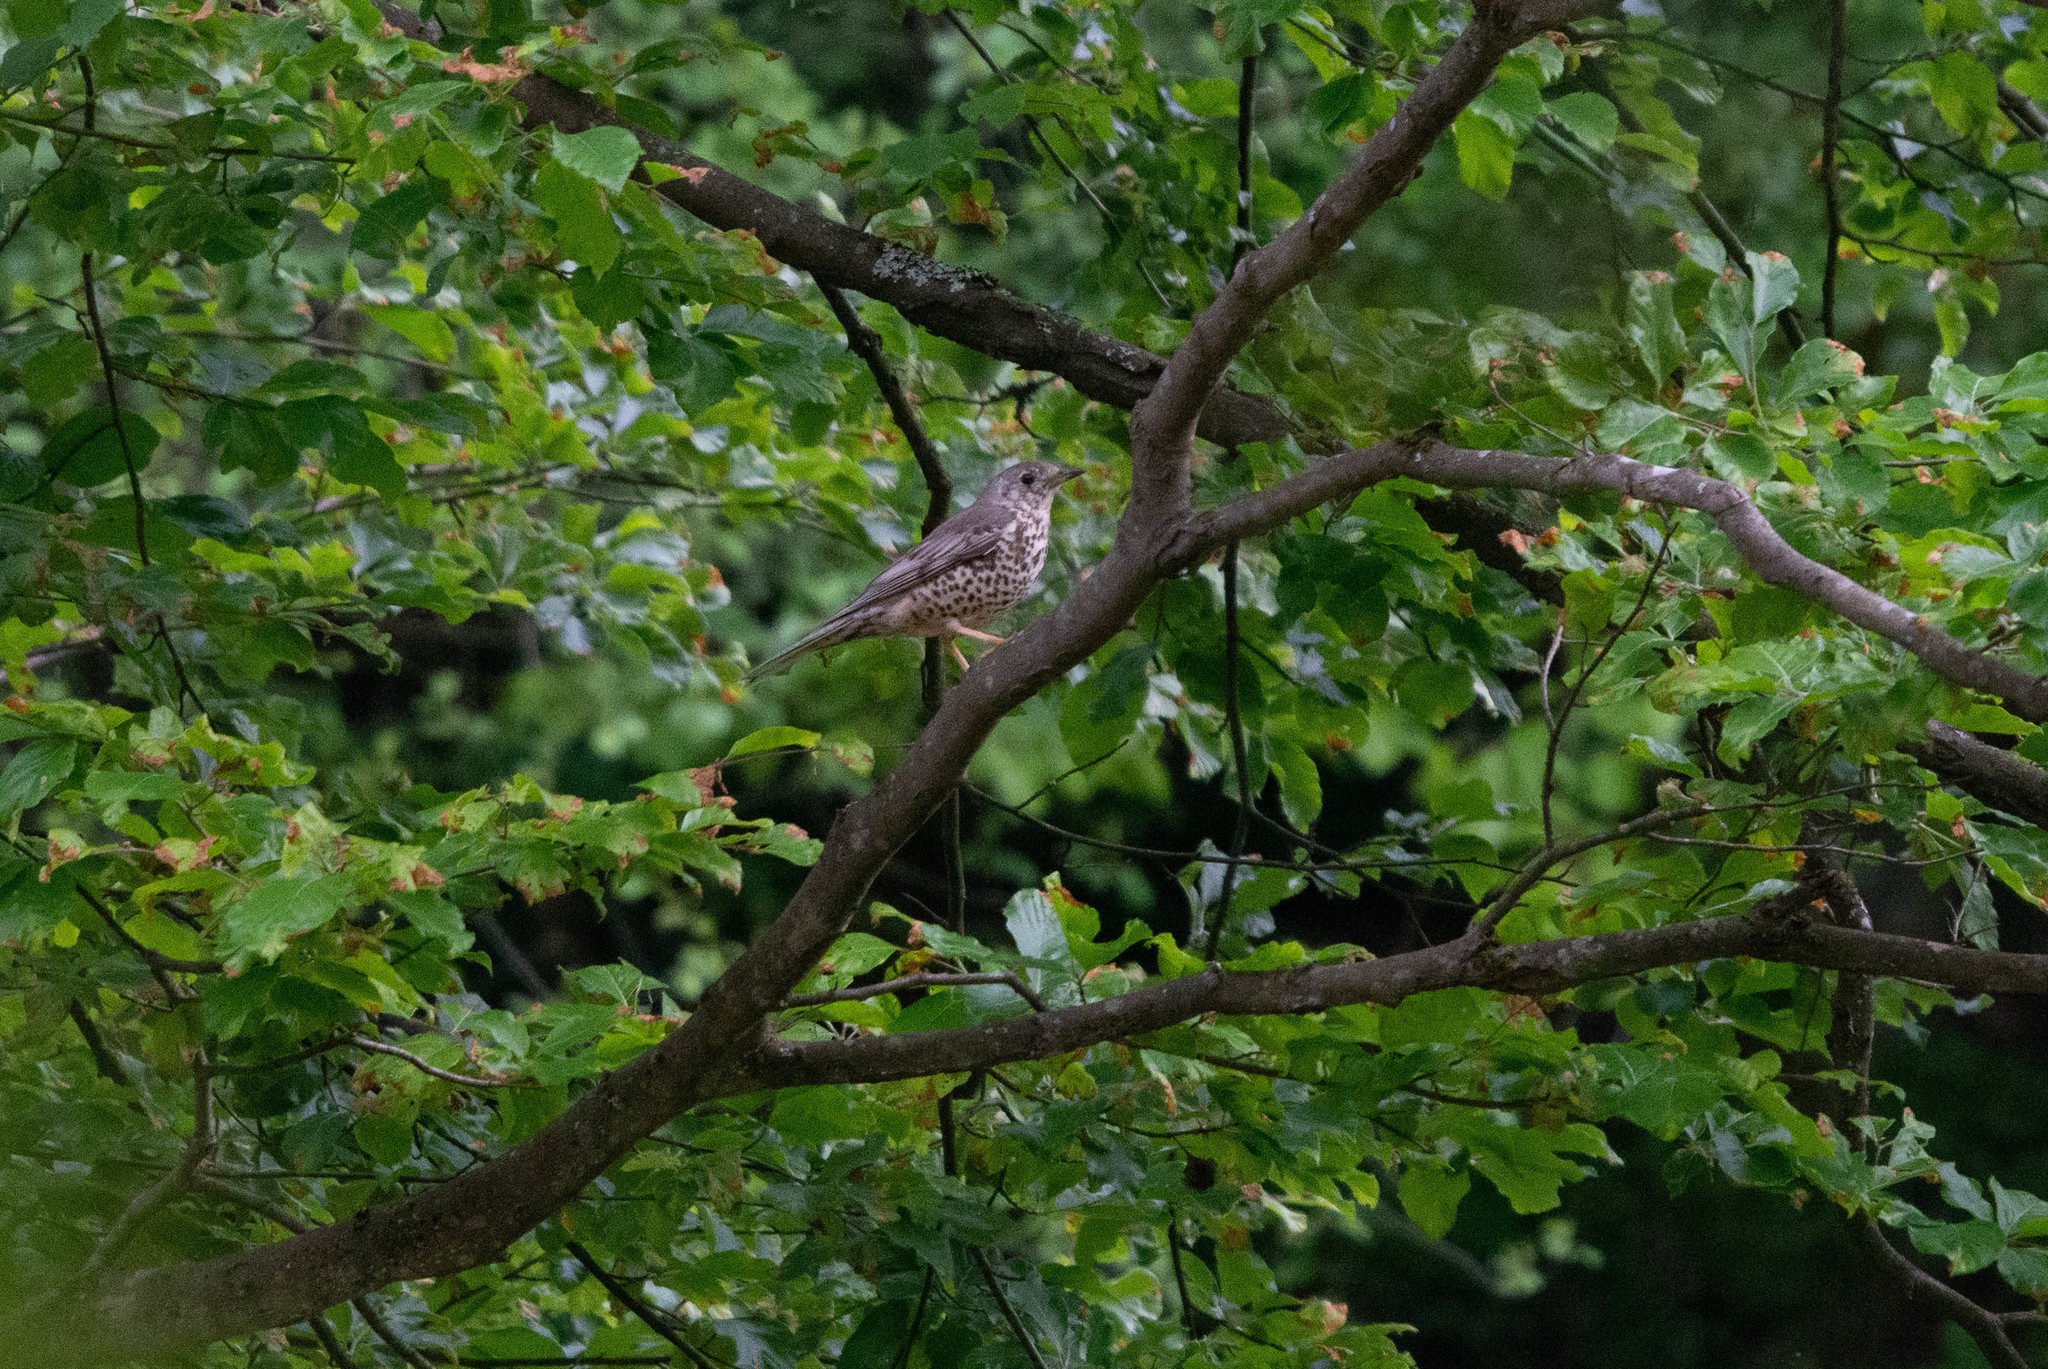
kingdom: Animalia
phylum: Chordata
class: Aves
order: Passeriformes
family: Turdidae
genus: Turdus
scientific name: Turdus viscivorus
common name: Mistle thrush
